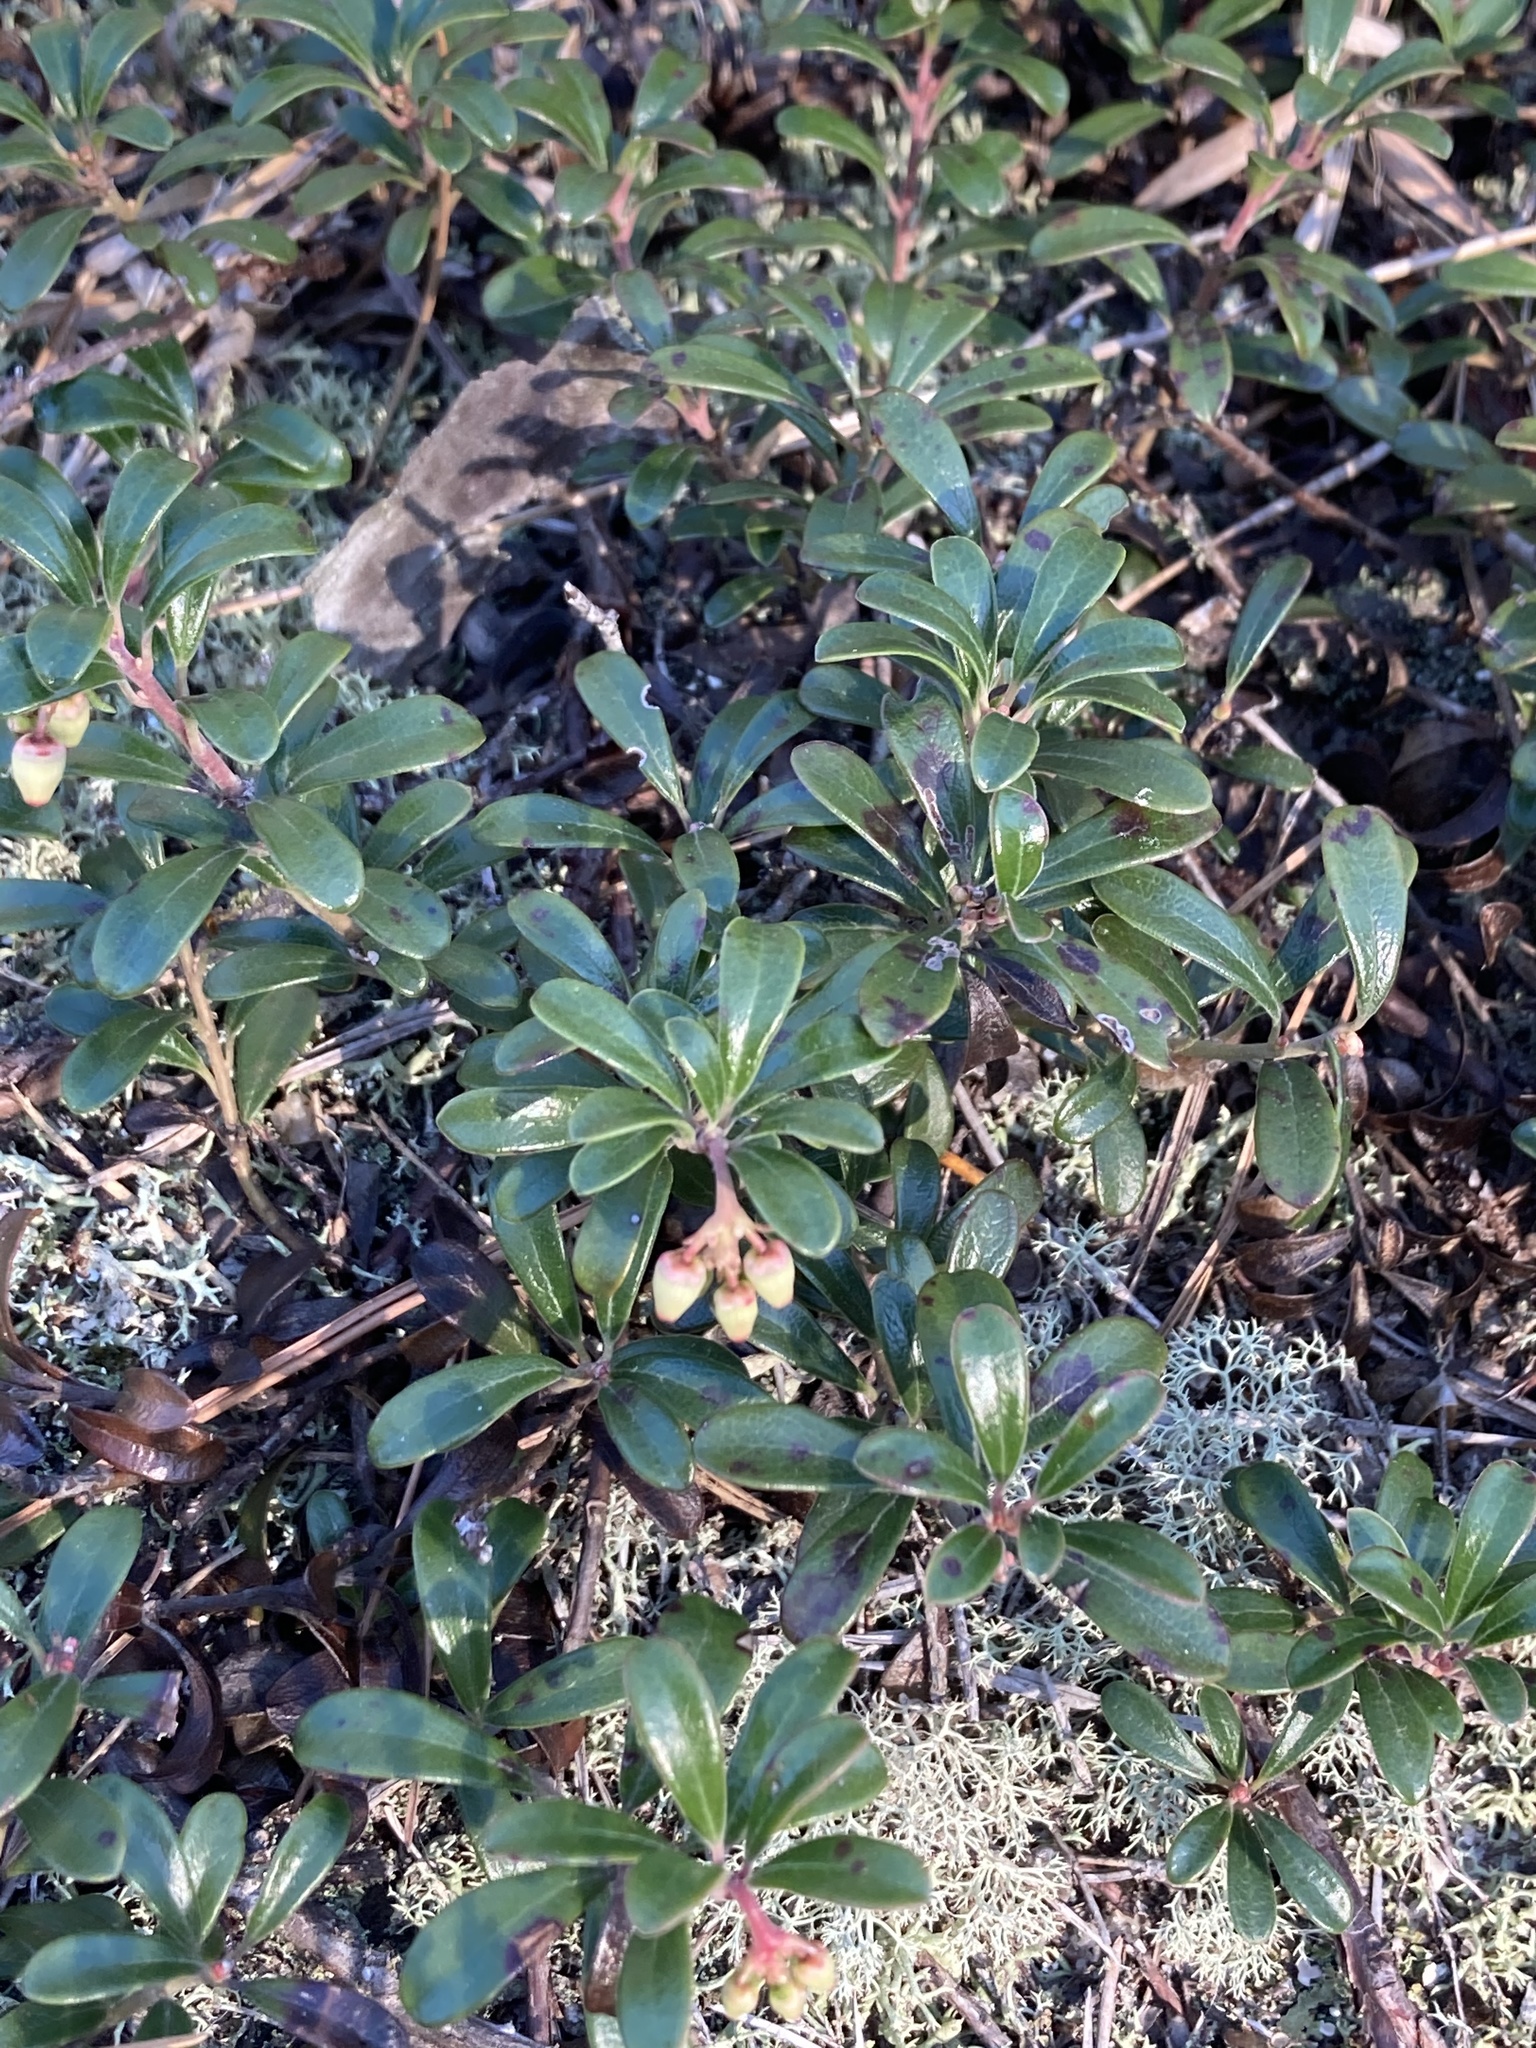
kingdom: Plantae
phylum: Tracheophyta
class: Magnoliopsida
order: Ericales
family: Ericaceae
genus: Arctostaphylos
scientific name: Arctostaphylos uva-ursi
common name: Bearberry
